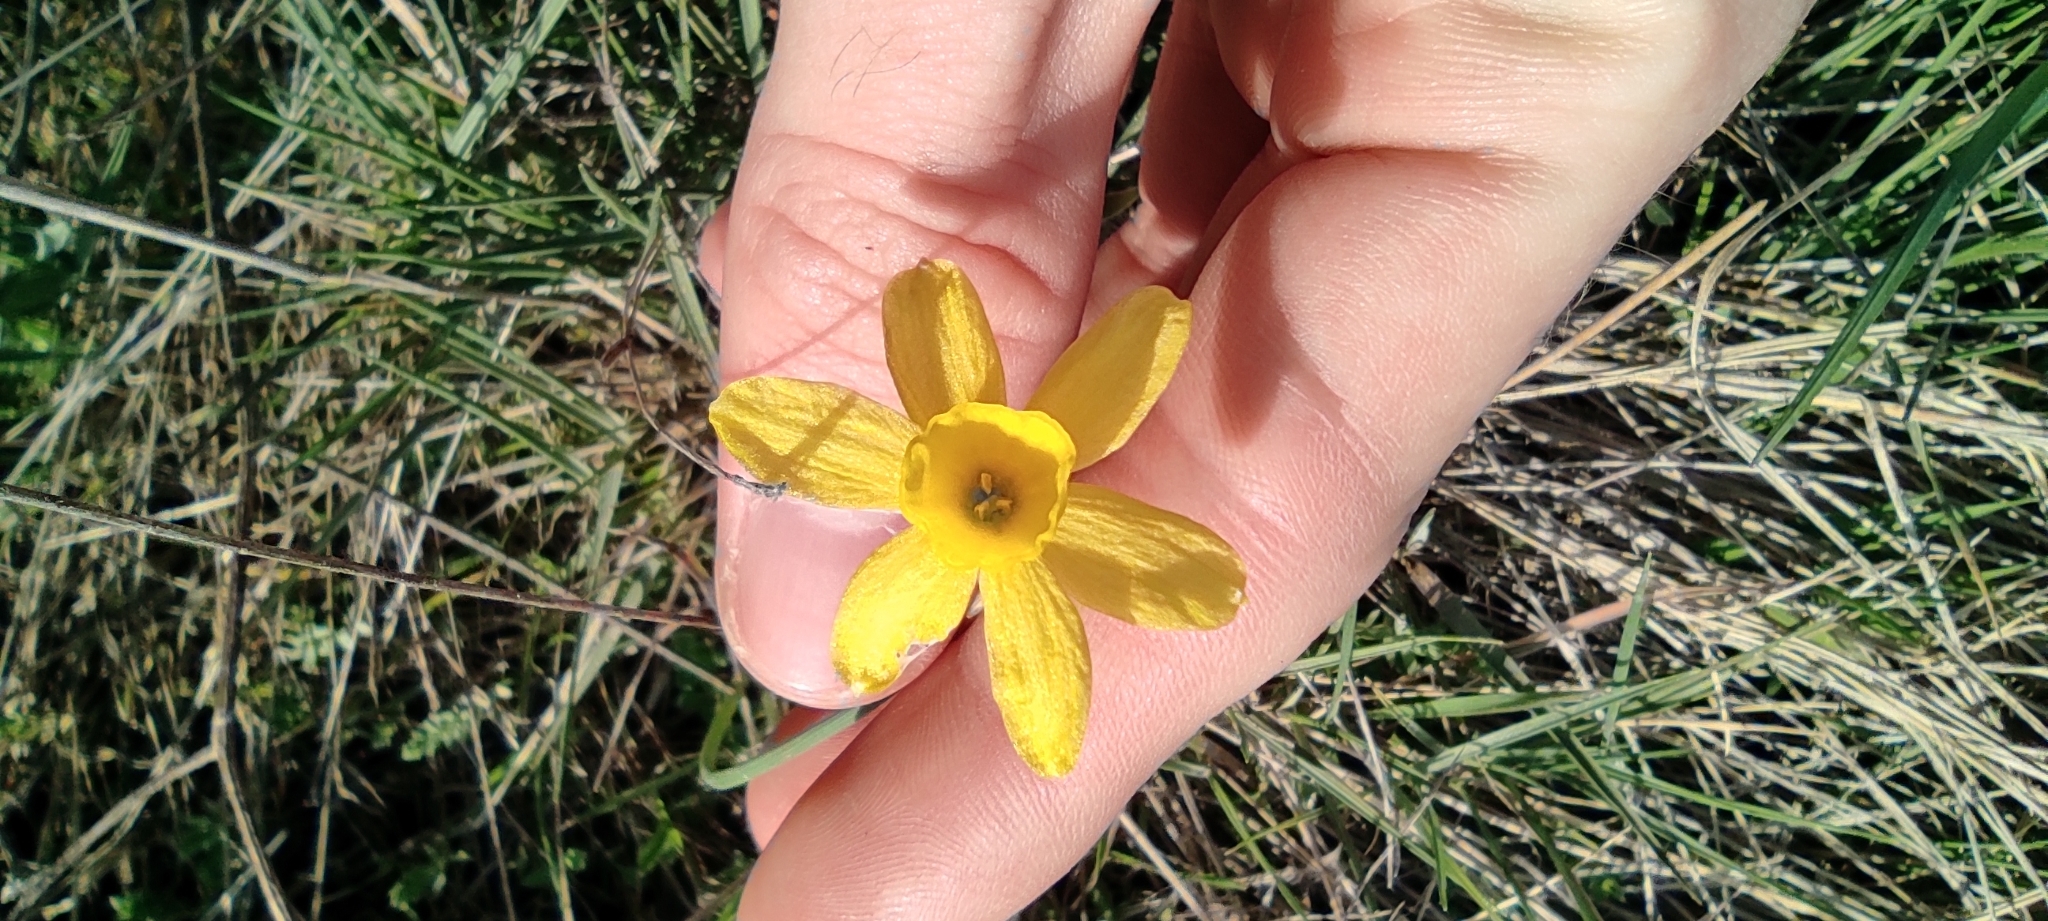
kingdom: Plantae
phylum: Tracheophyta
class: Liliopsida
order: Asparagales
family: Amaryllidaceae
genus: Narcissus
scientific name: Narcissus assoanus
